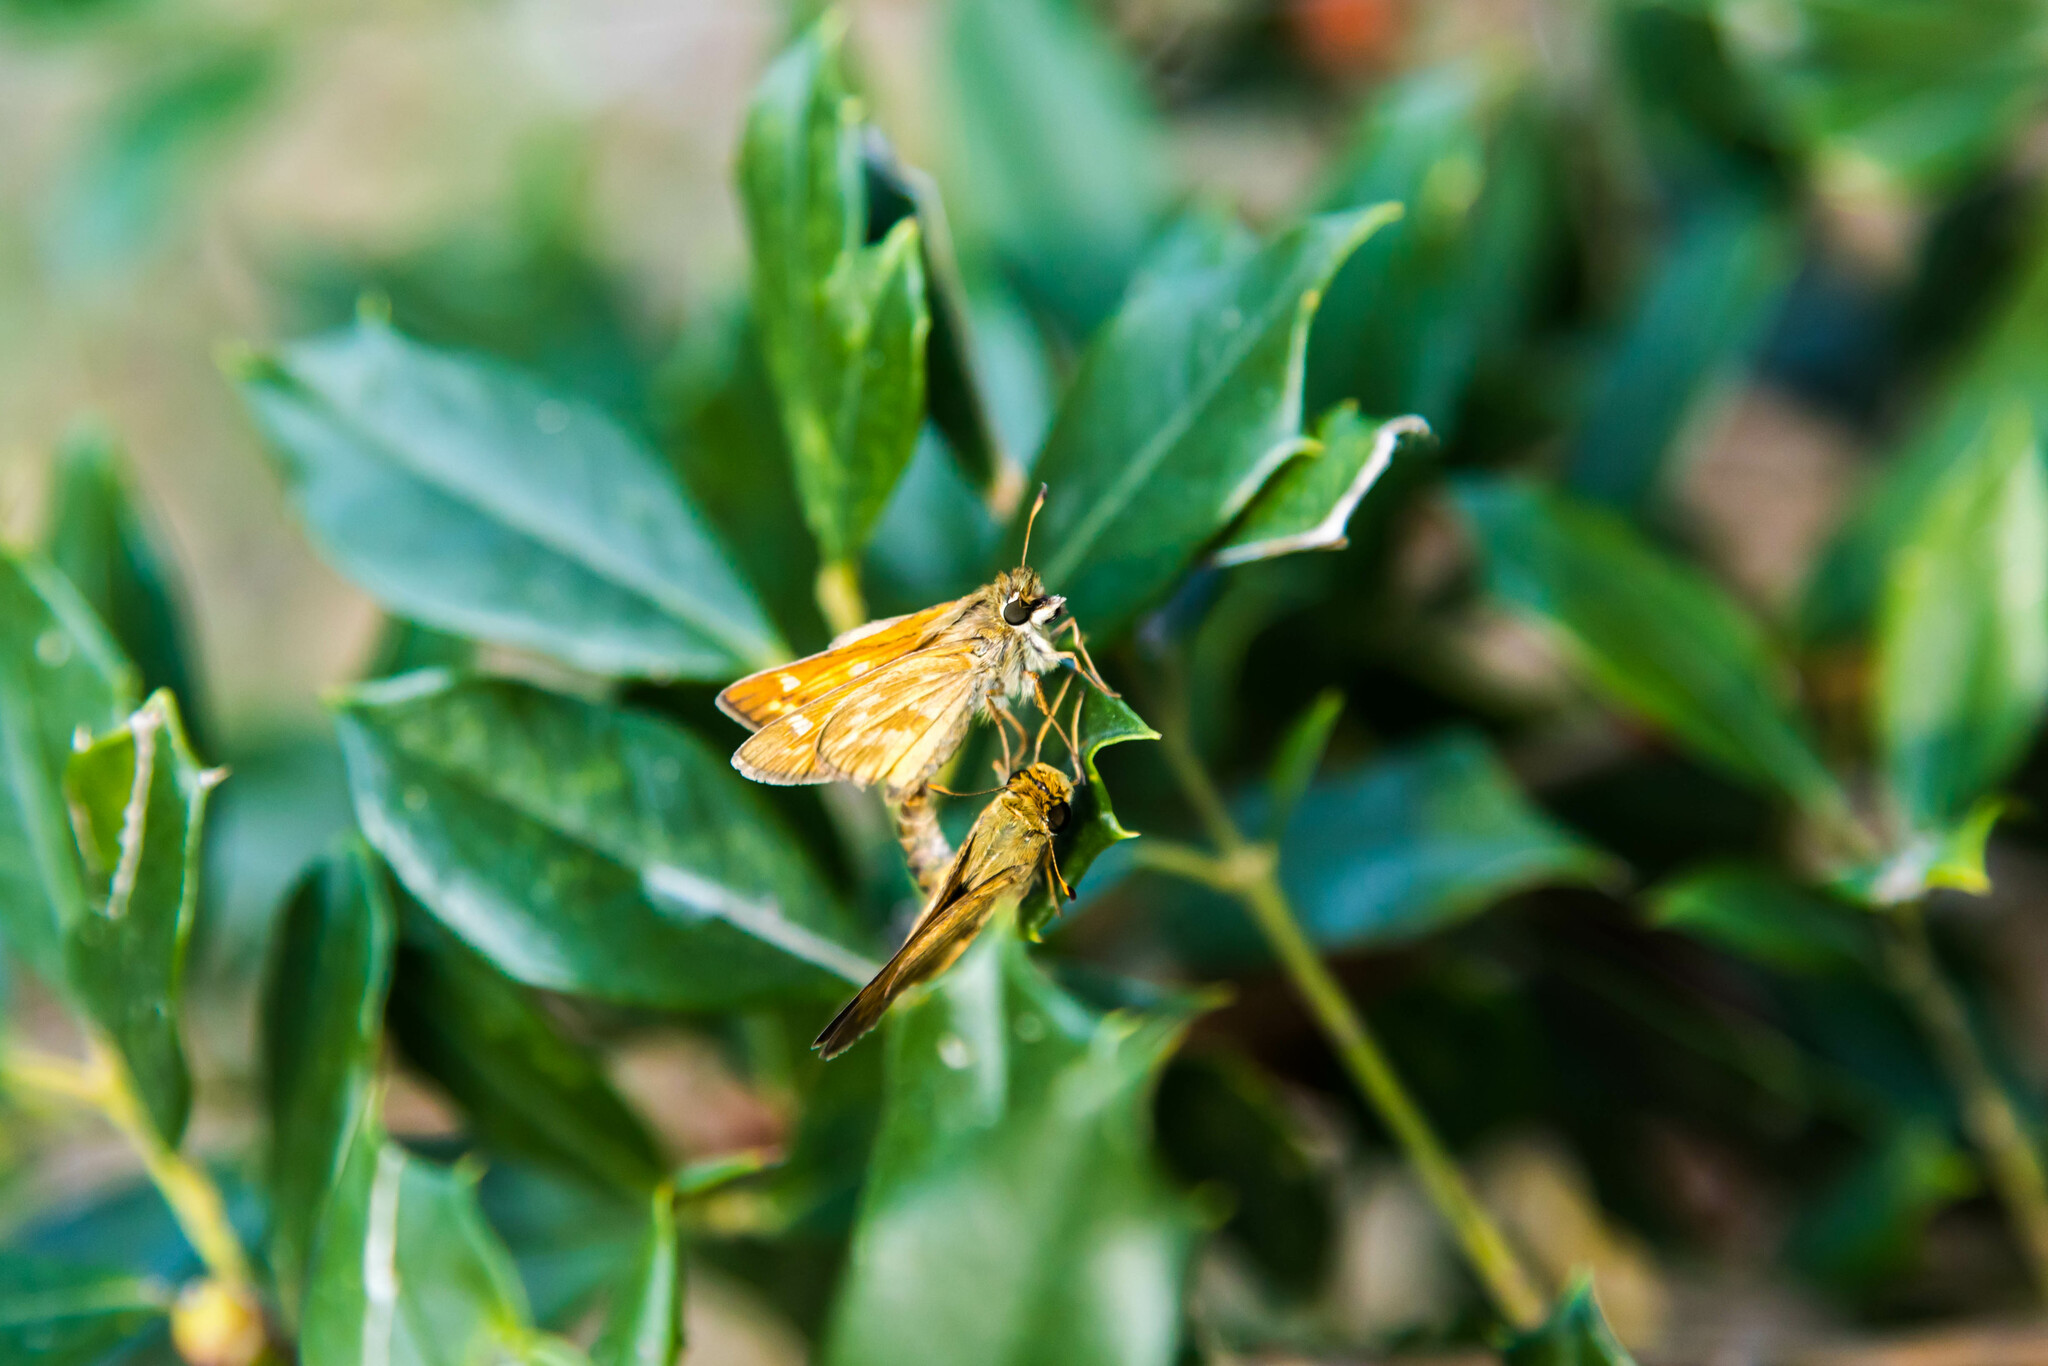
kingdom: Animalia
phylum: Arthropoda
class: Insecta
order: Lepidoptera
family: Hesperiidae
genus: Atalopedes
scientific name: Atalopedes
